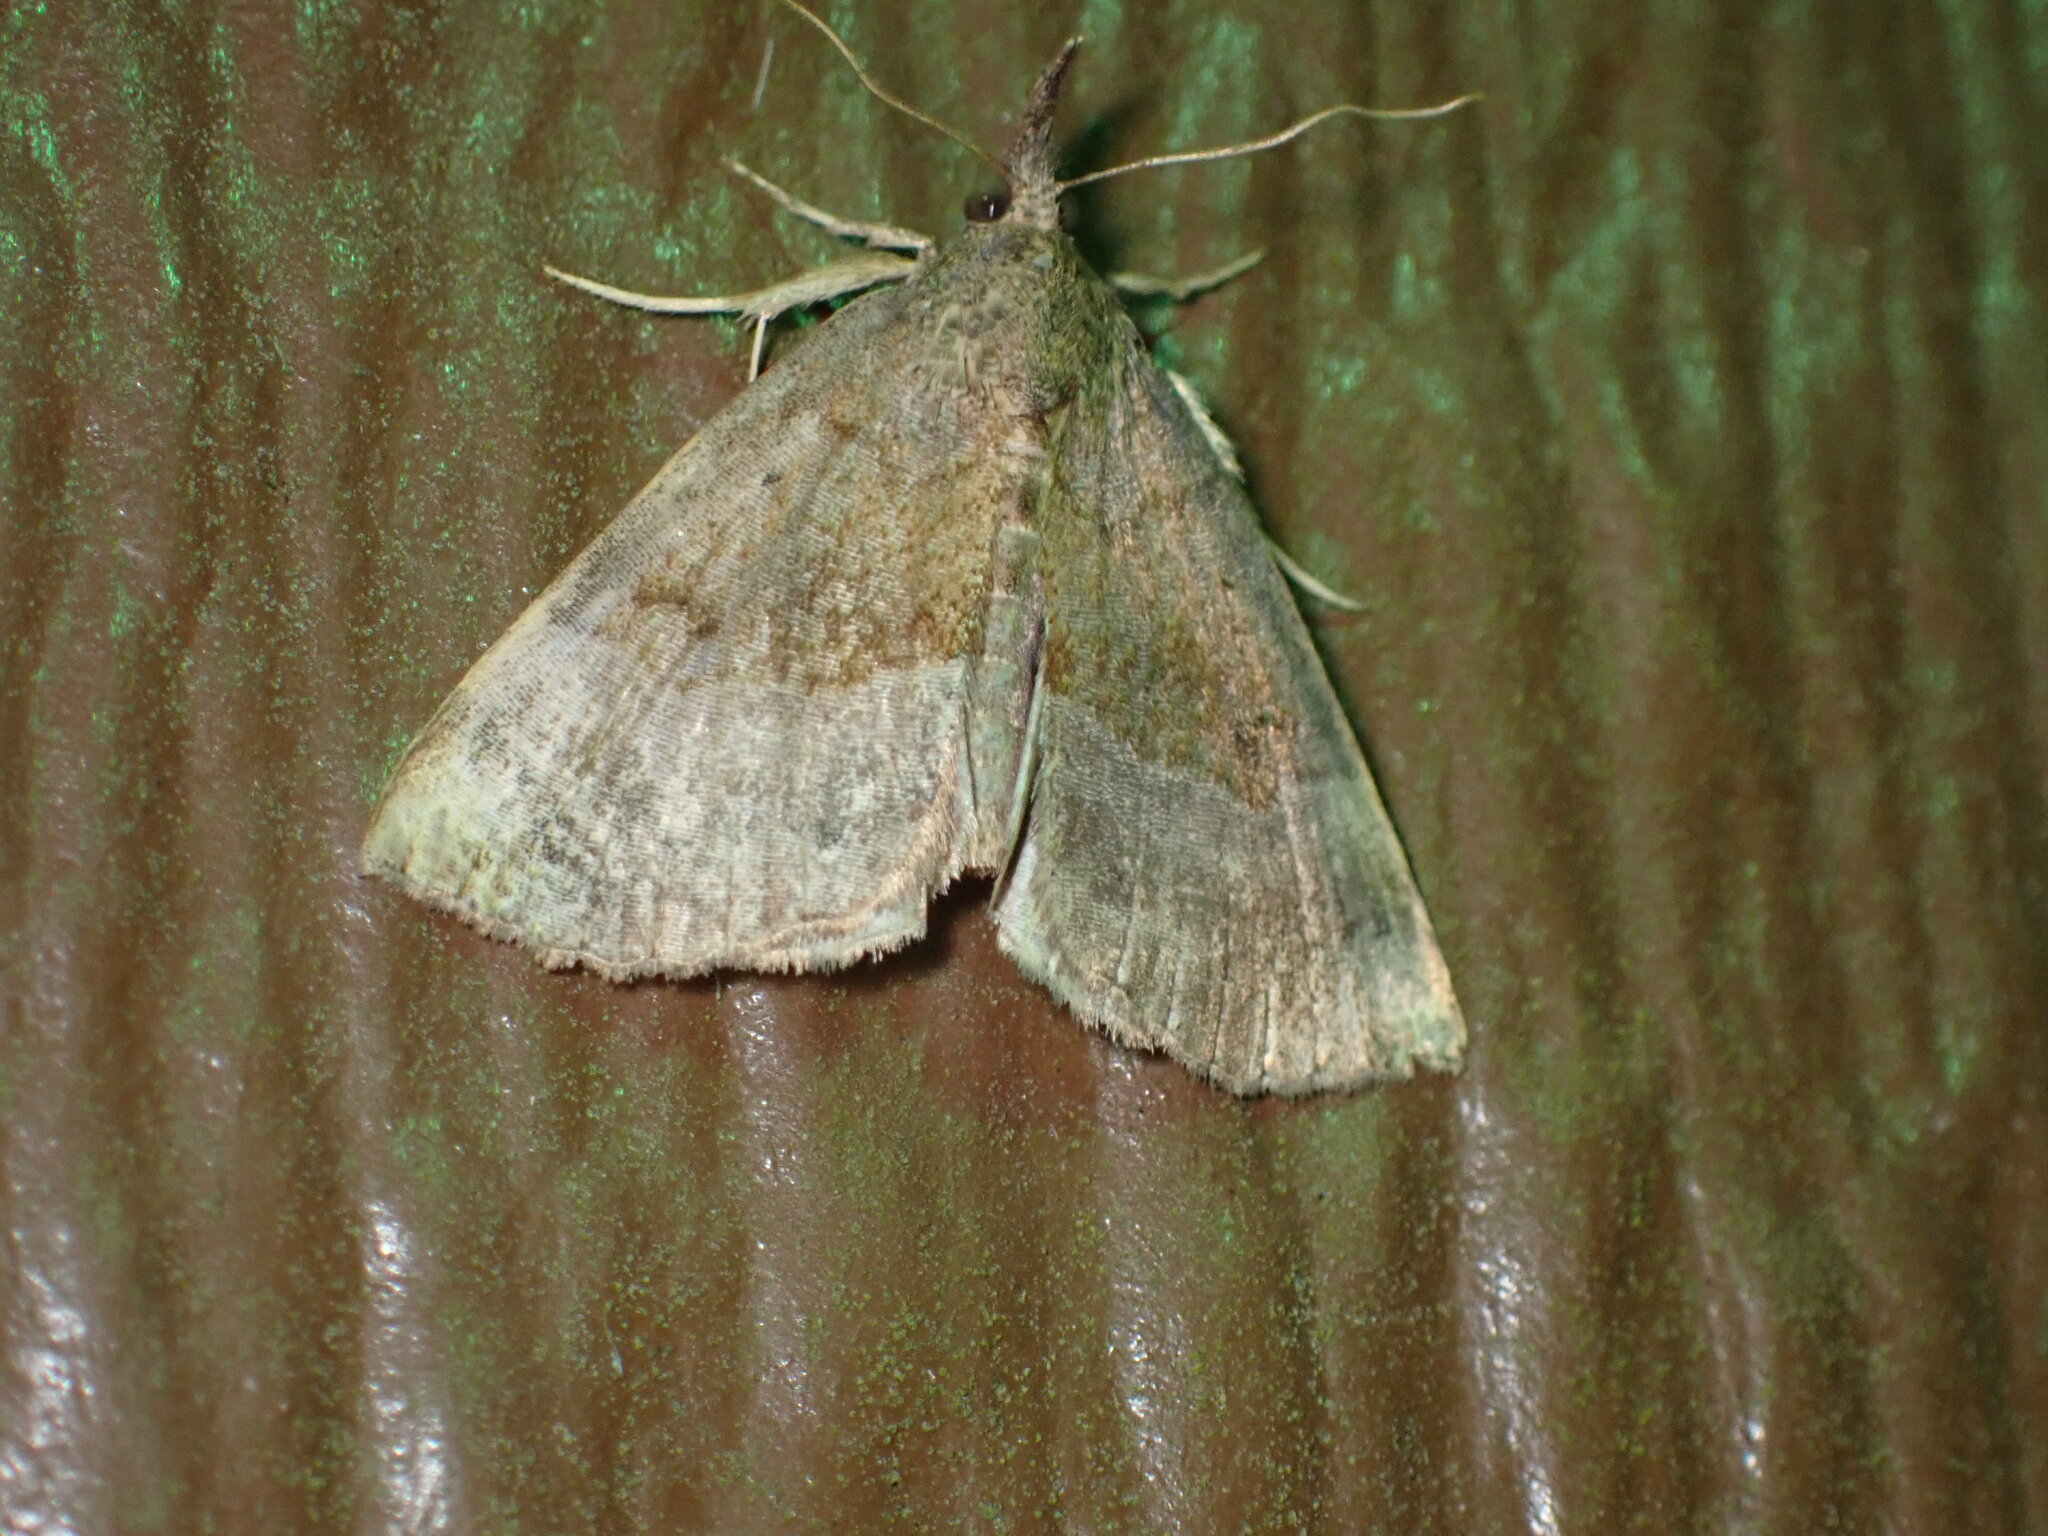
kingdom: Animalia
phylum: Arthropoda
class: Insecta
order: Lepidoptera
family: Erebidae
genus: Hypena
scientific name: Hypena madefactalis
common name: Gray-edged snout
